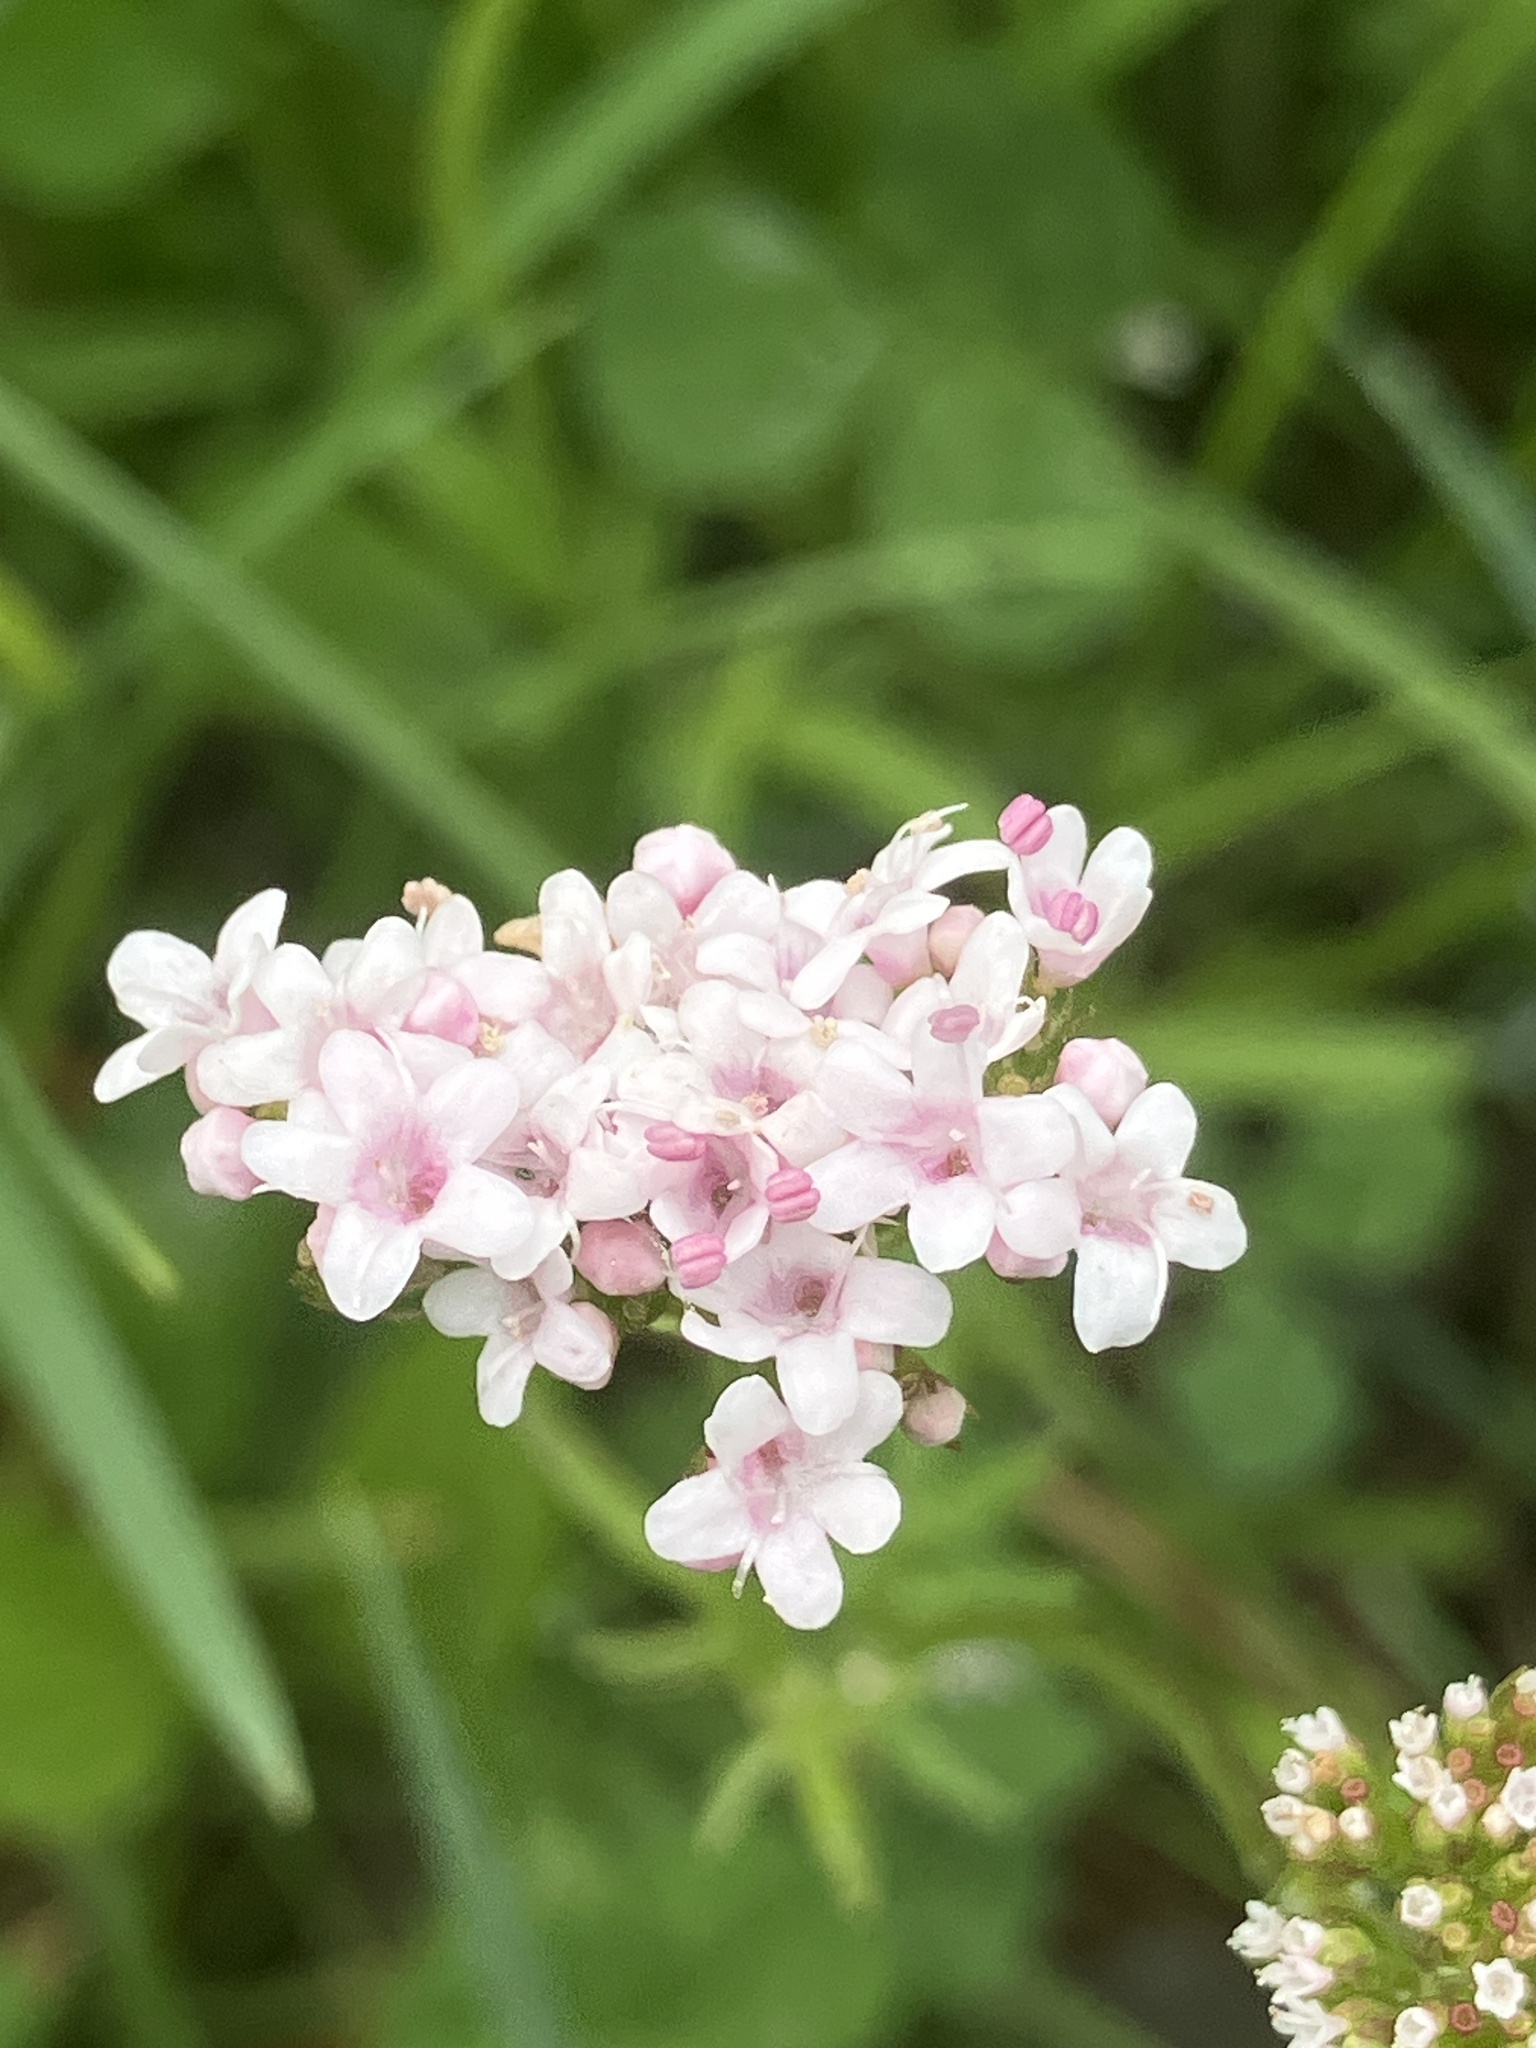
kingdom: Plantae
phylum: Tracheophyta
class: Magnoliopsida
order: Dipsacales
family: Caprifoliaceae
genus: Valeriana
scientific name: Valeriana dioica
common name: Marsh valerian
